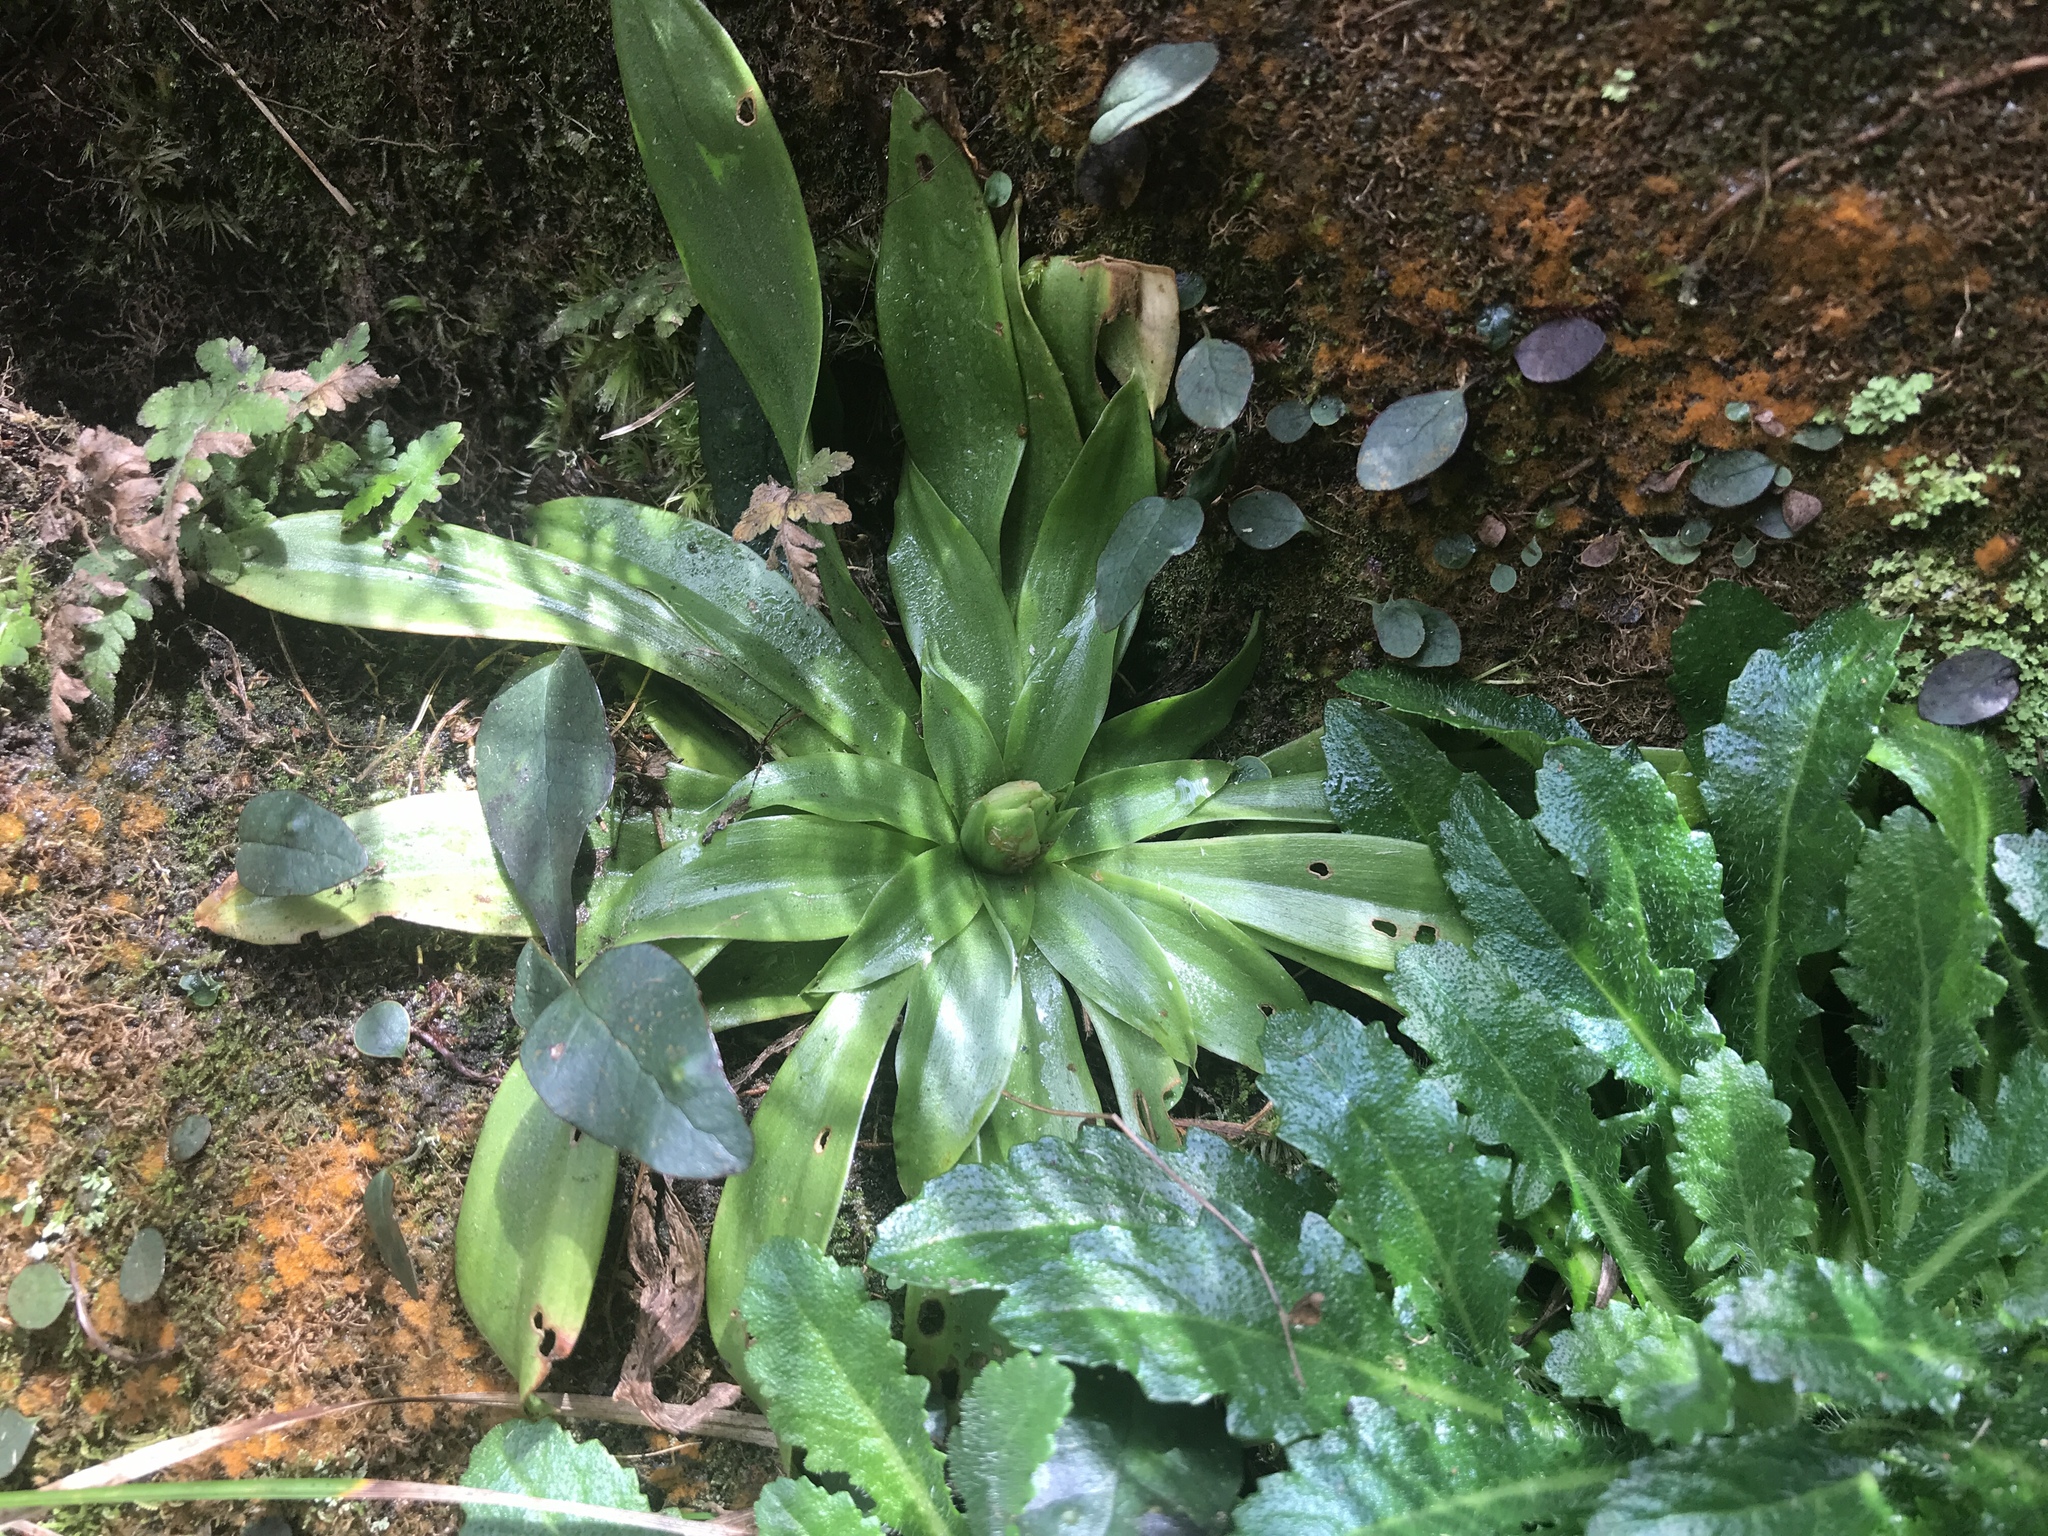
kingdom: Plantae
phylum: Tracheophyta
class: Liliopsida
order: Liliales
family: Melanthiaceae
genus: Helonias
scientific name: Helonias umbellata
